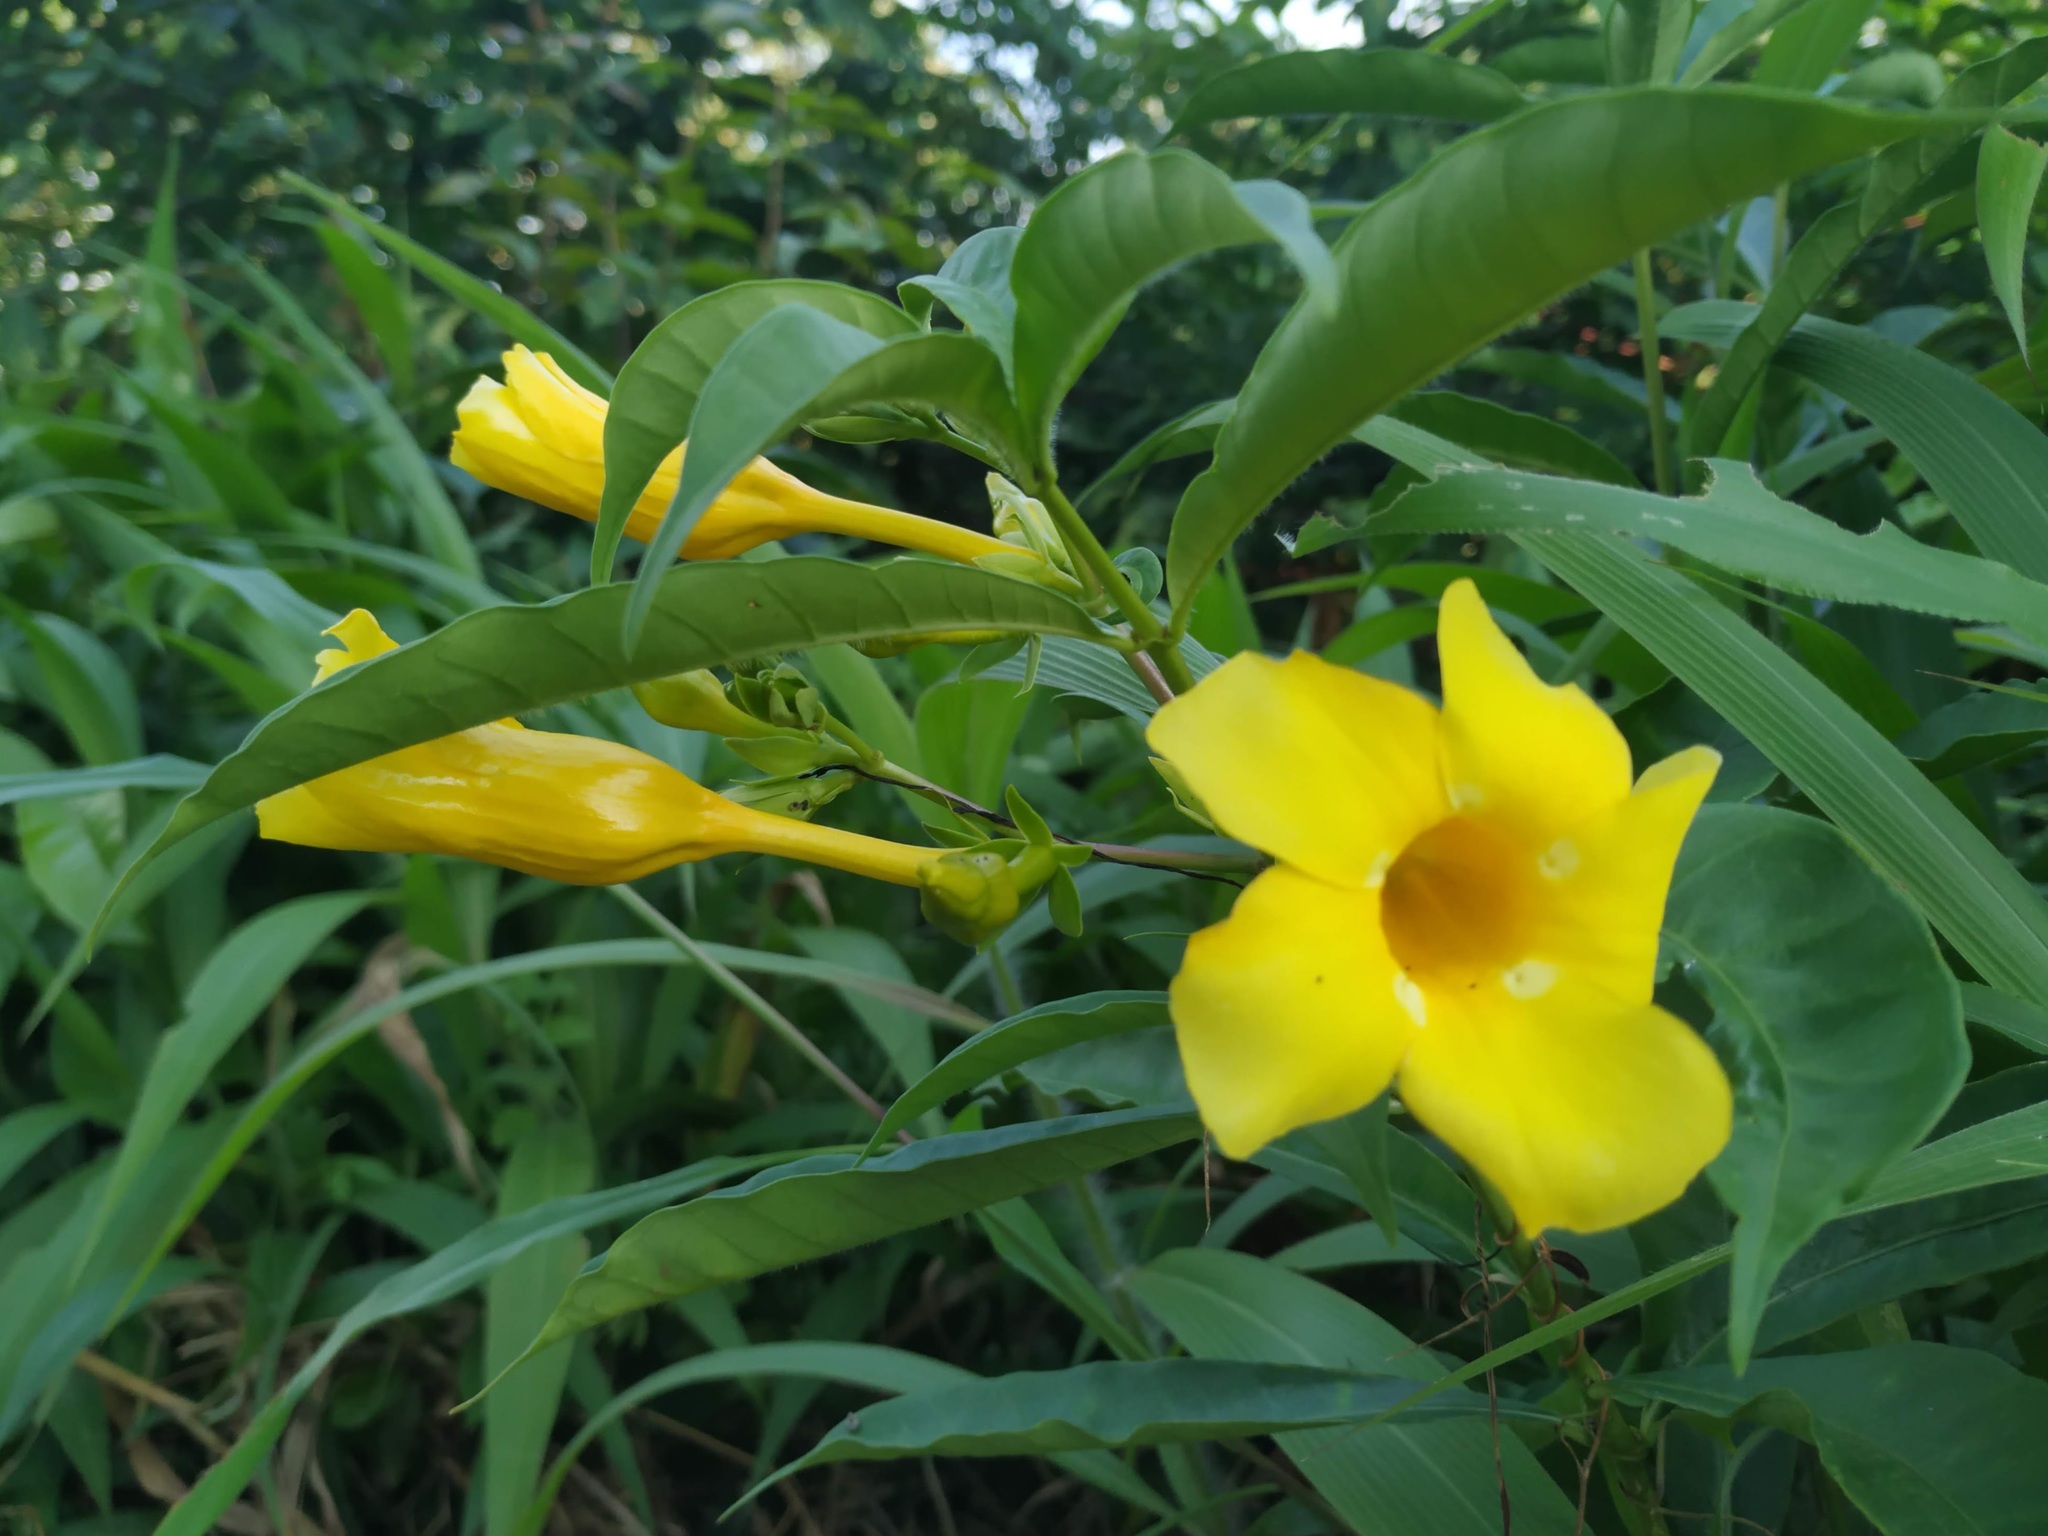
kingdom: Plantae
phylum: Tracheophyta
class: Magnoliopsida
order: Gentianales
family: Apocynaceae
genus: Allamanda
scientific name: Allamanda cathartica
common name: Golden trumpet
